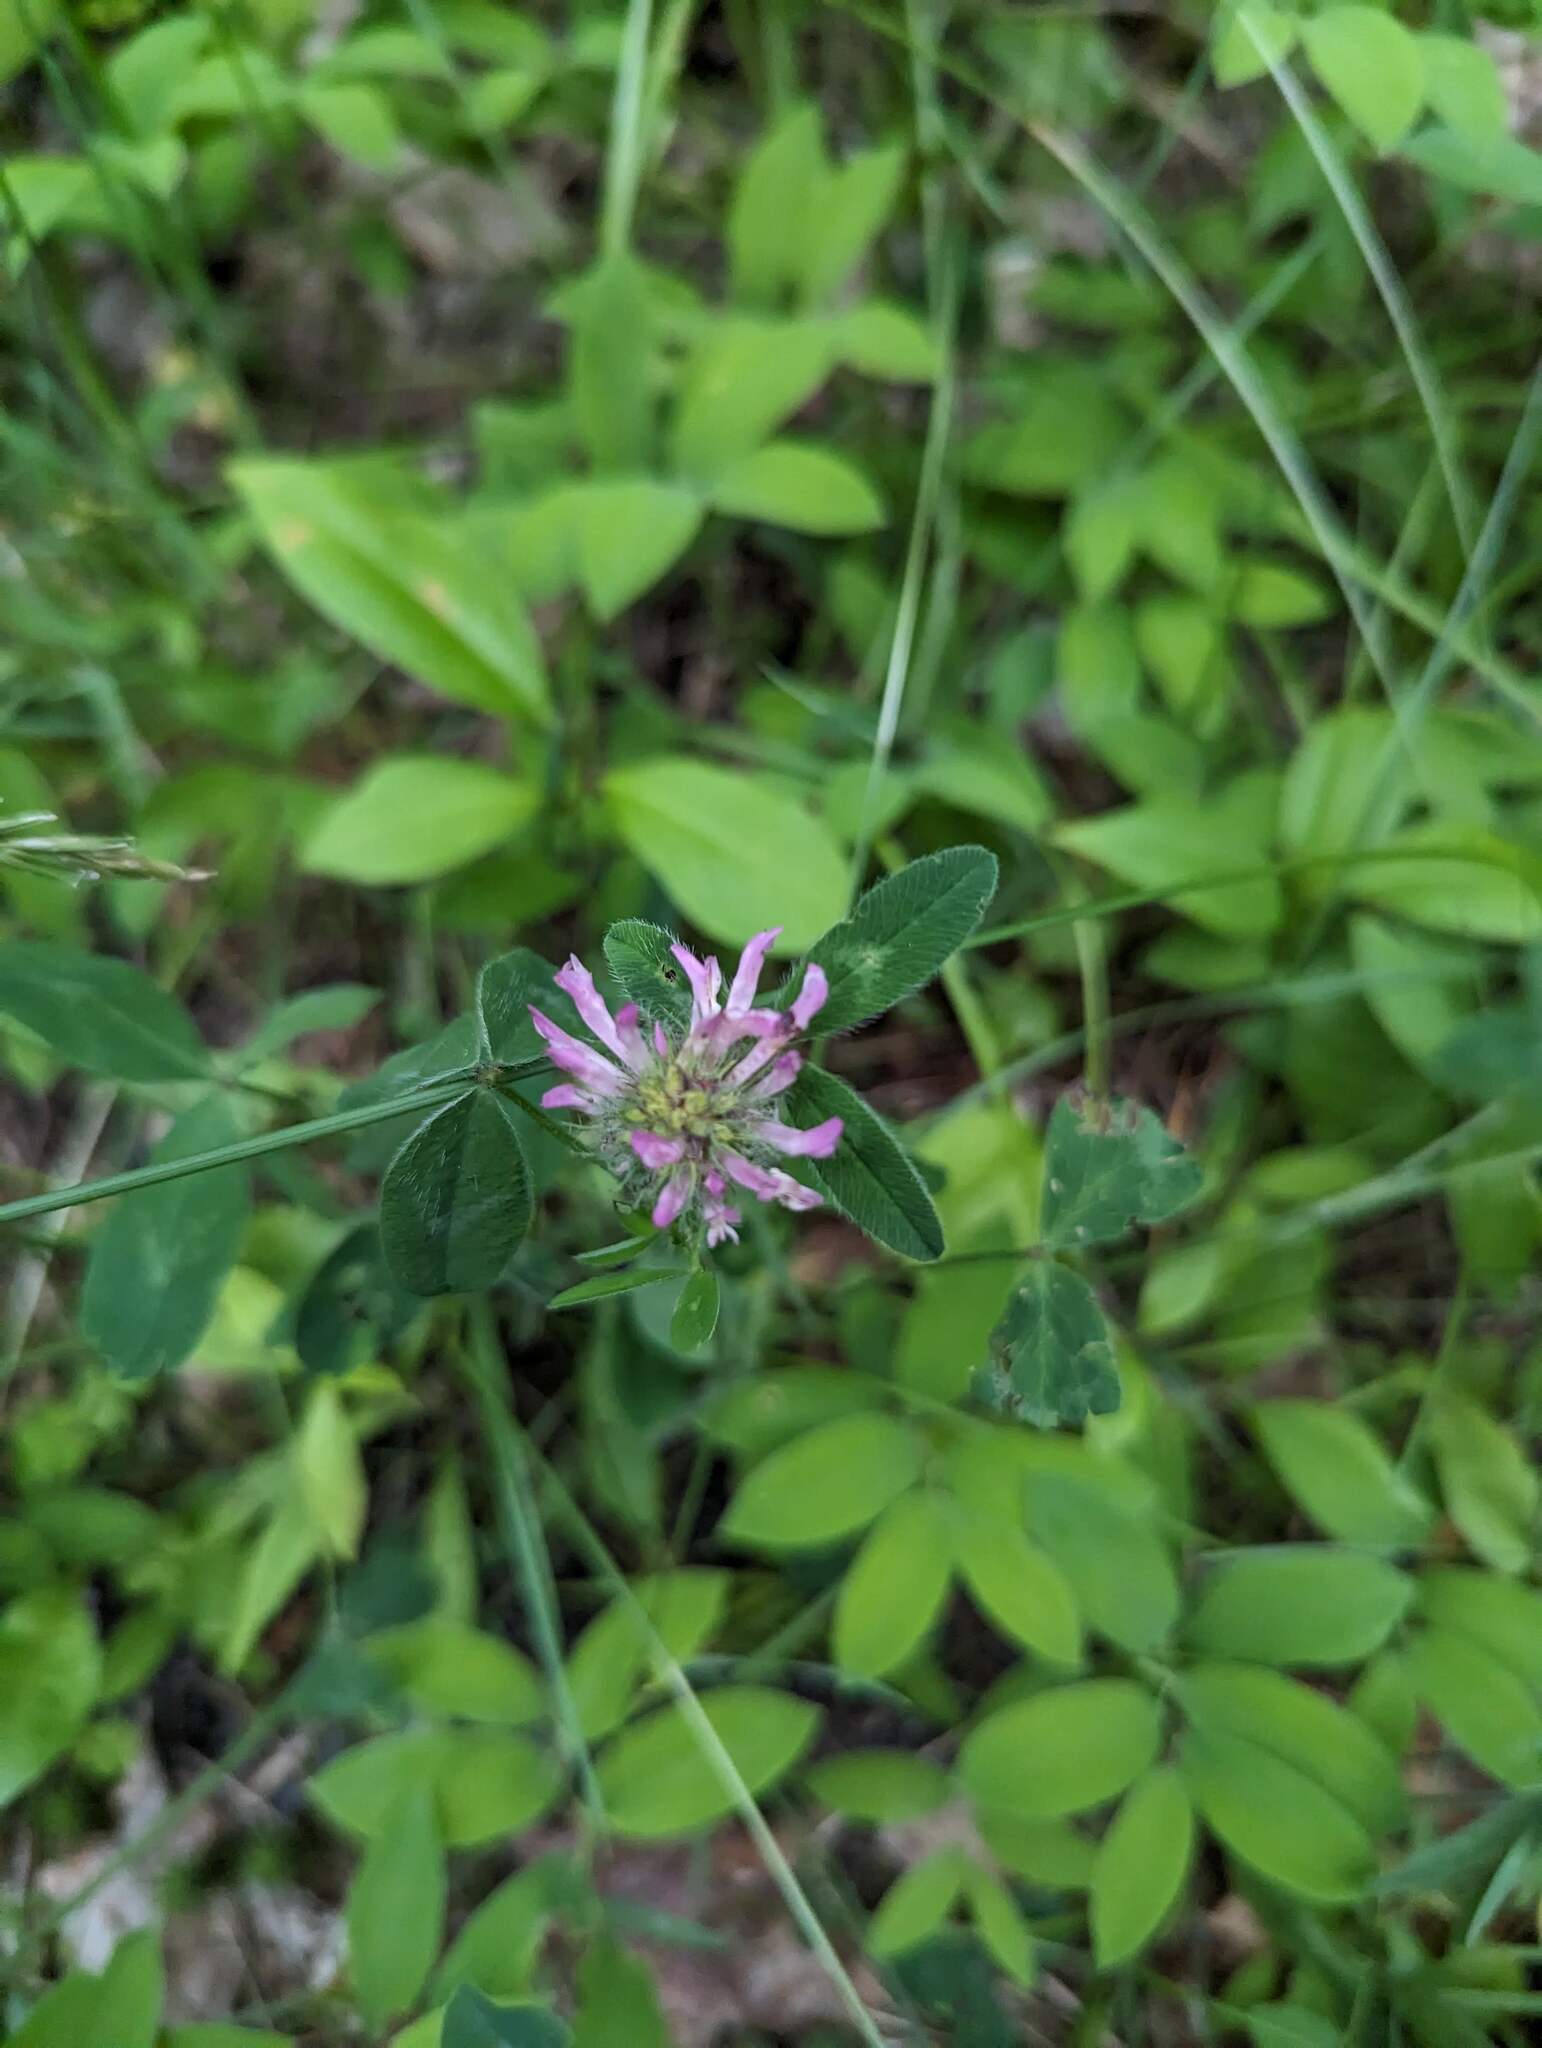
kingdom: Plantae
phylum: Tracheophyta
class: Magnoliopsida
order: Fabales
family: Fabaceae
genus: Trifolium
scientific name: Trifolium pratense
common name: Red clover
